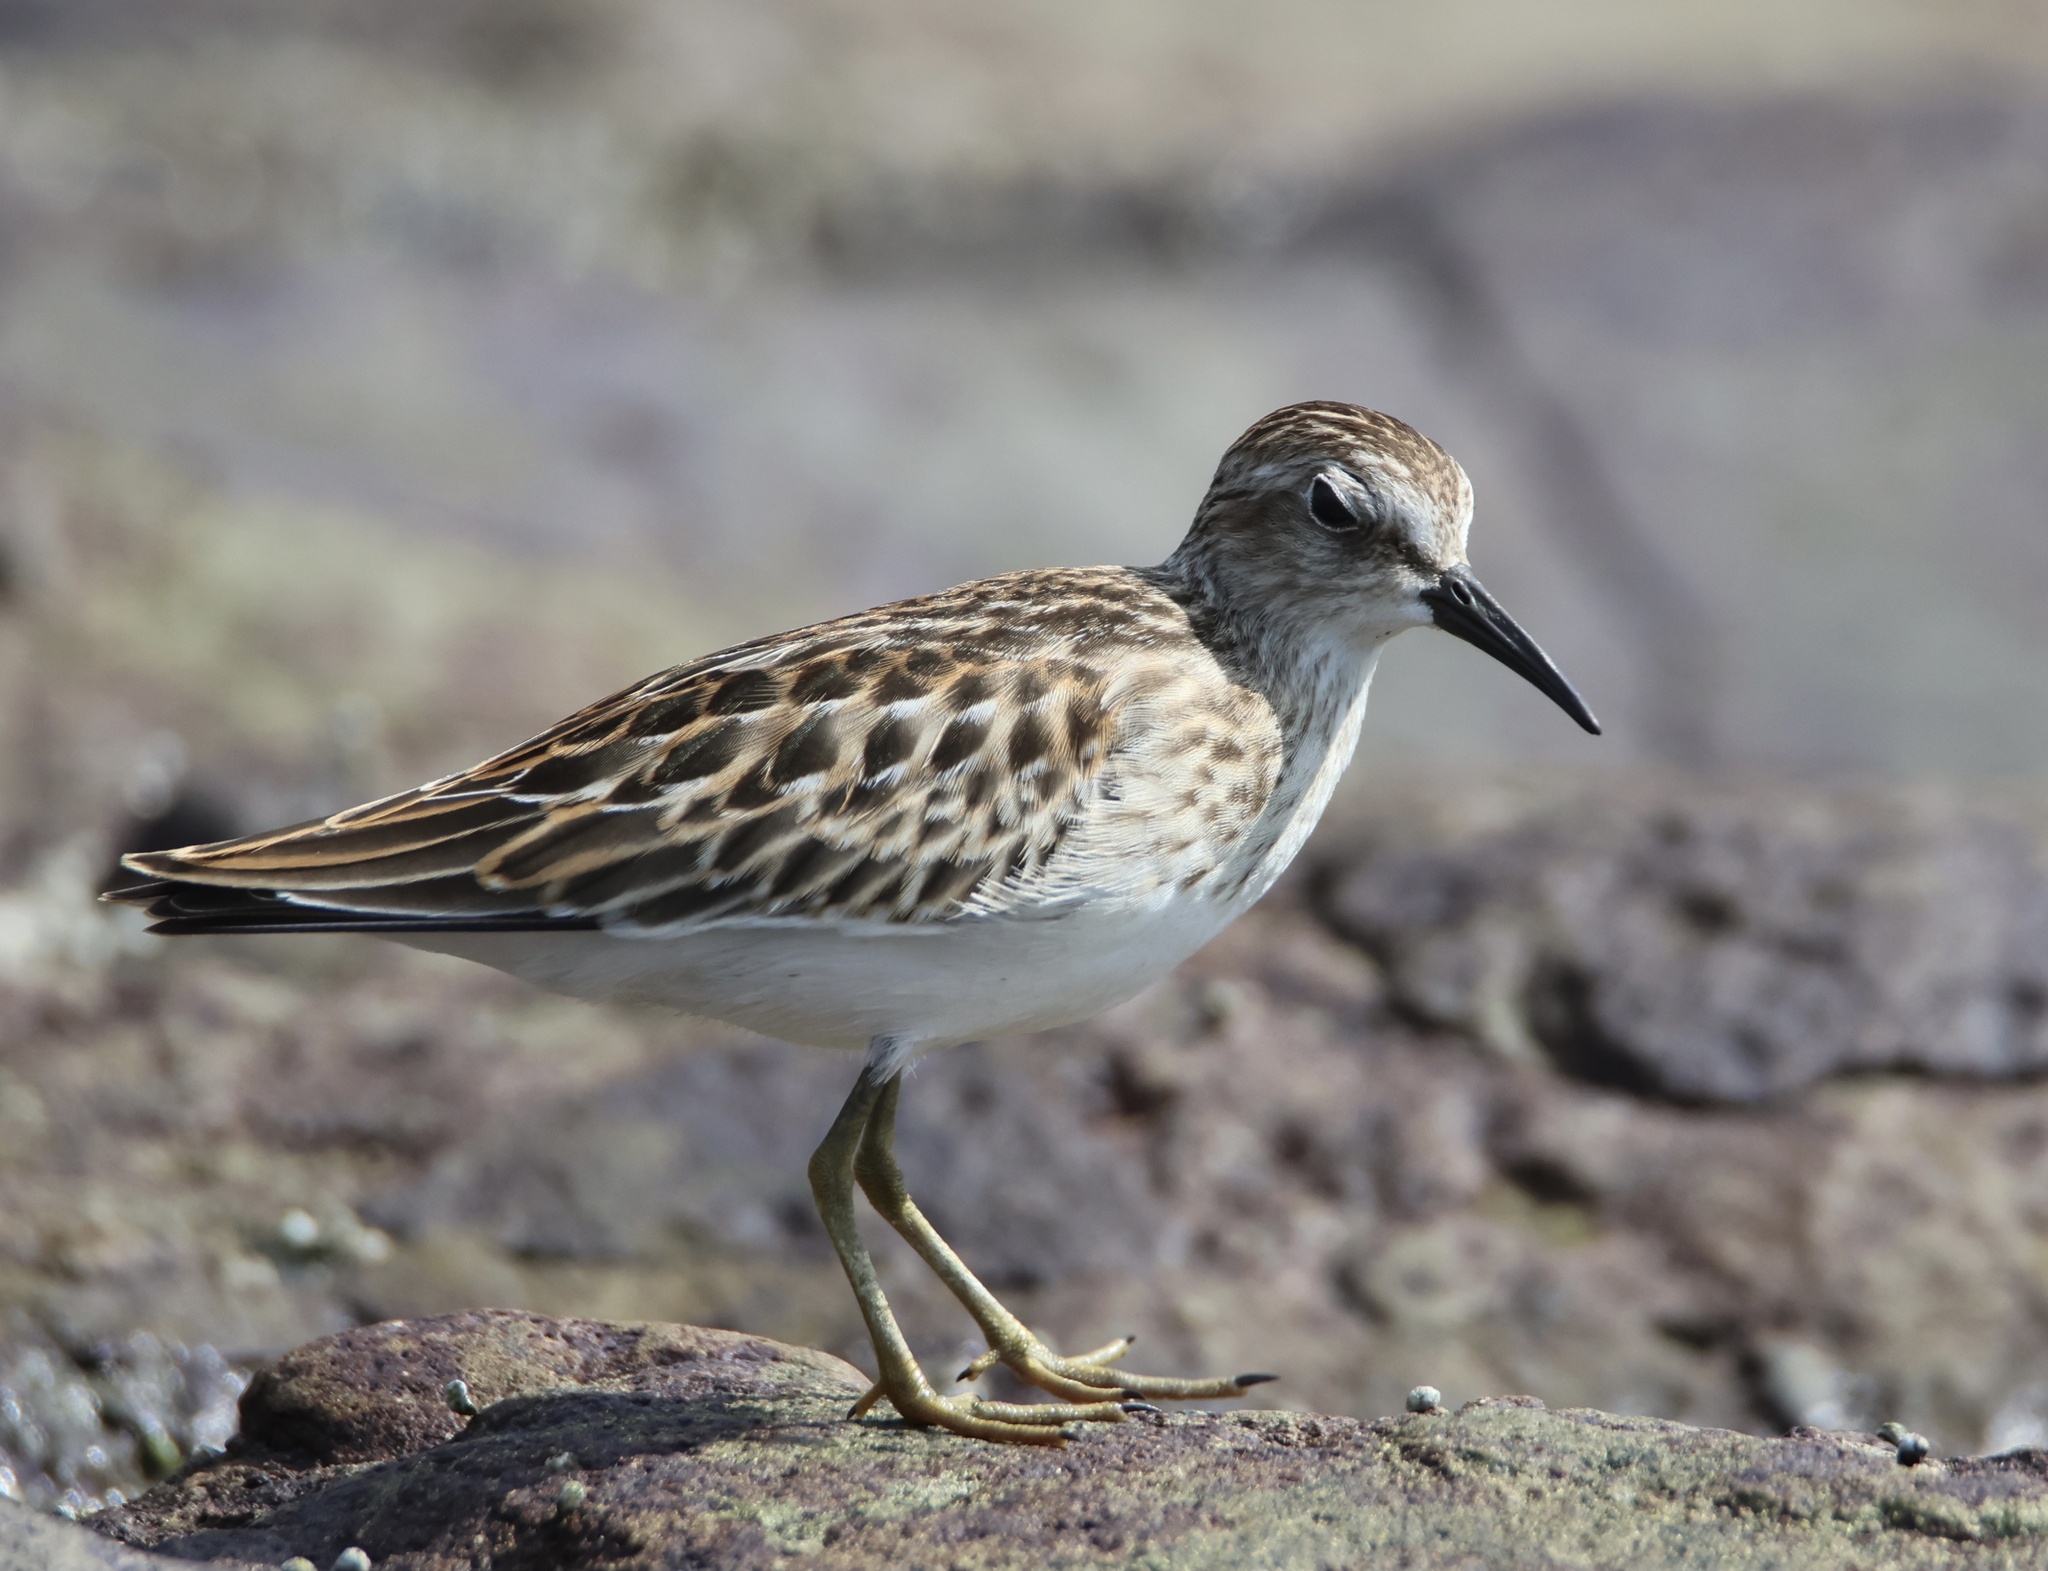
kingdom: Animalia
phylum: Chordata
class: Aves
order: Charadriiformes
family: Scolopacidae
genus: Calidris
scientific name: Calidris minutilla
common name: Least sandpiper
